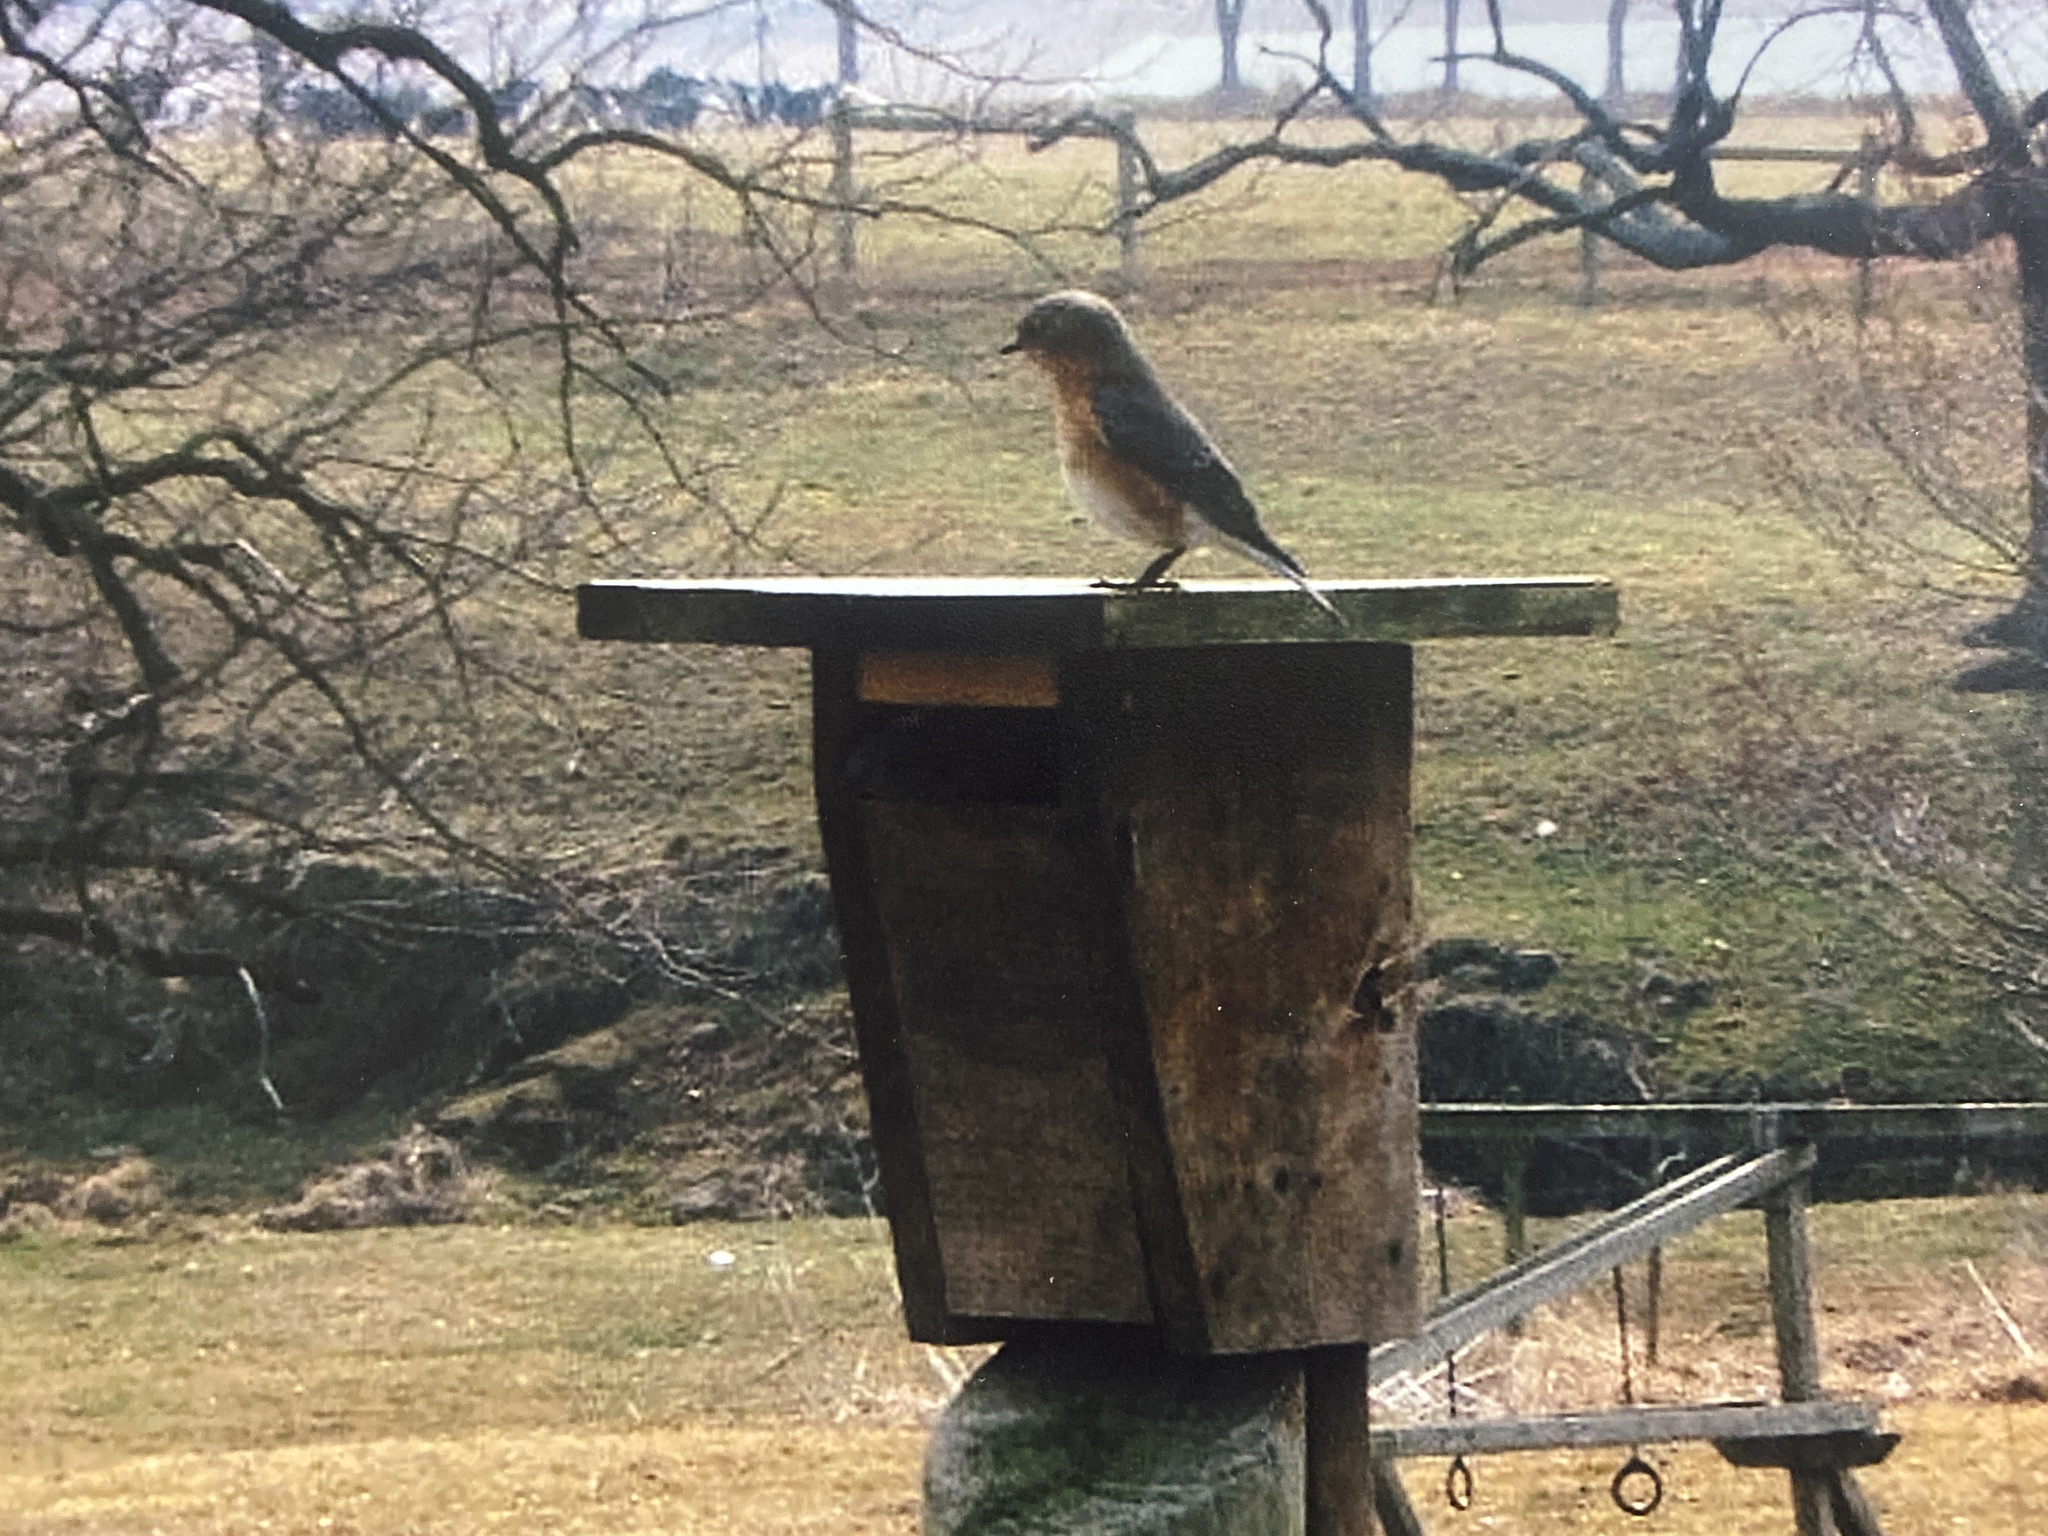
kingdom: Animalia
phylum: Chordata
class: Aves
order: Passeriformes
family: Turdidae
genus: Sialia
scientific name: Sialia sialis
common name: Eastern bluebird
